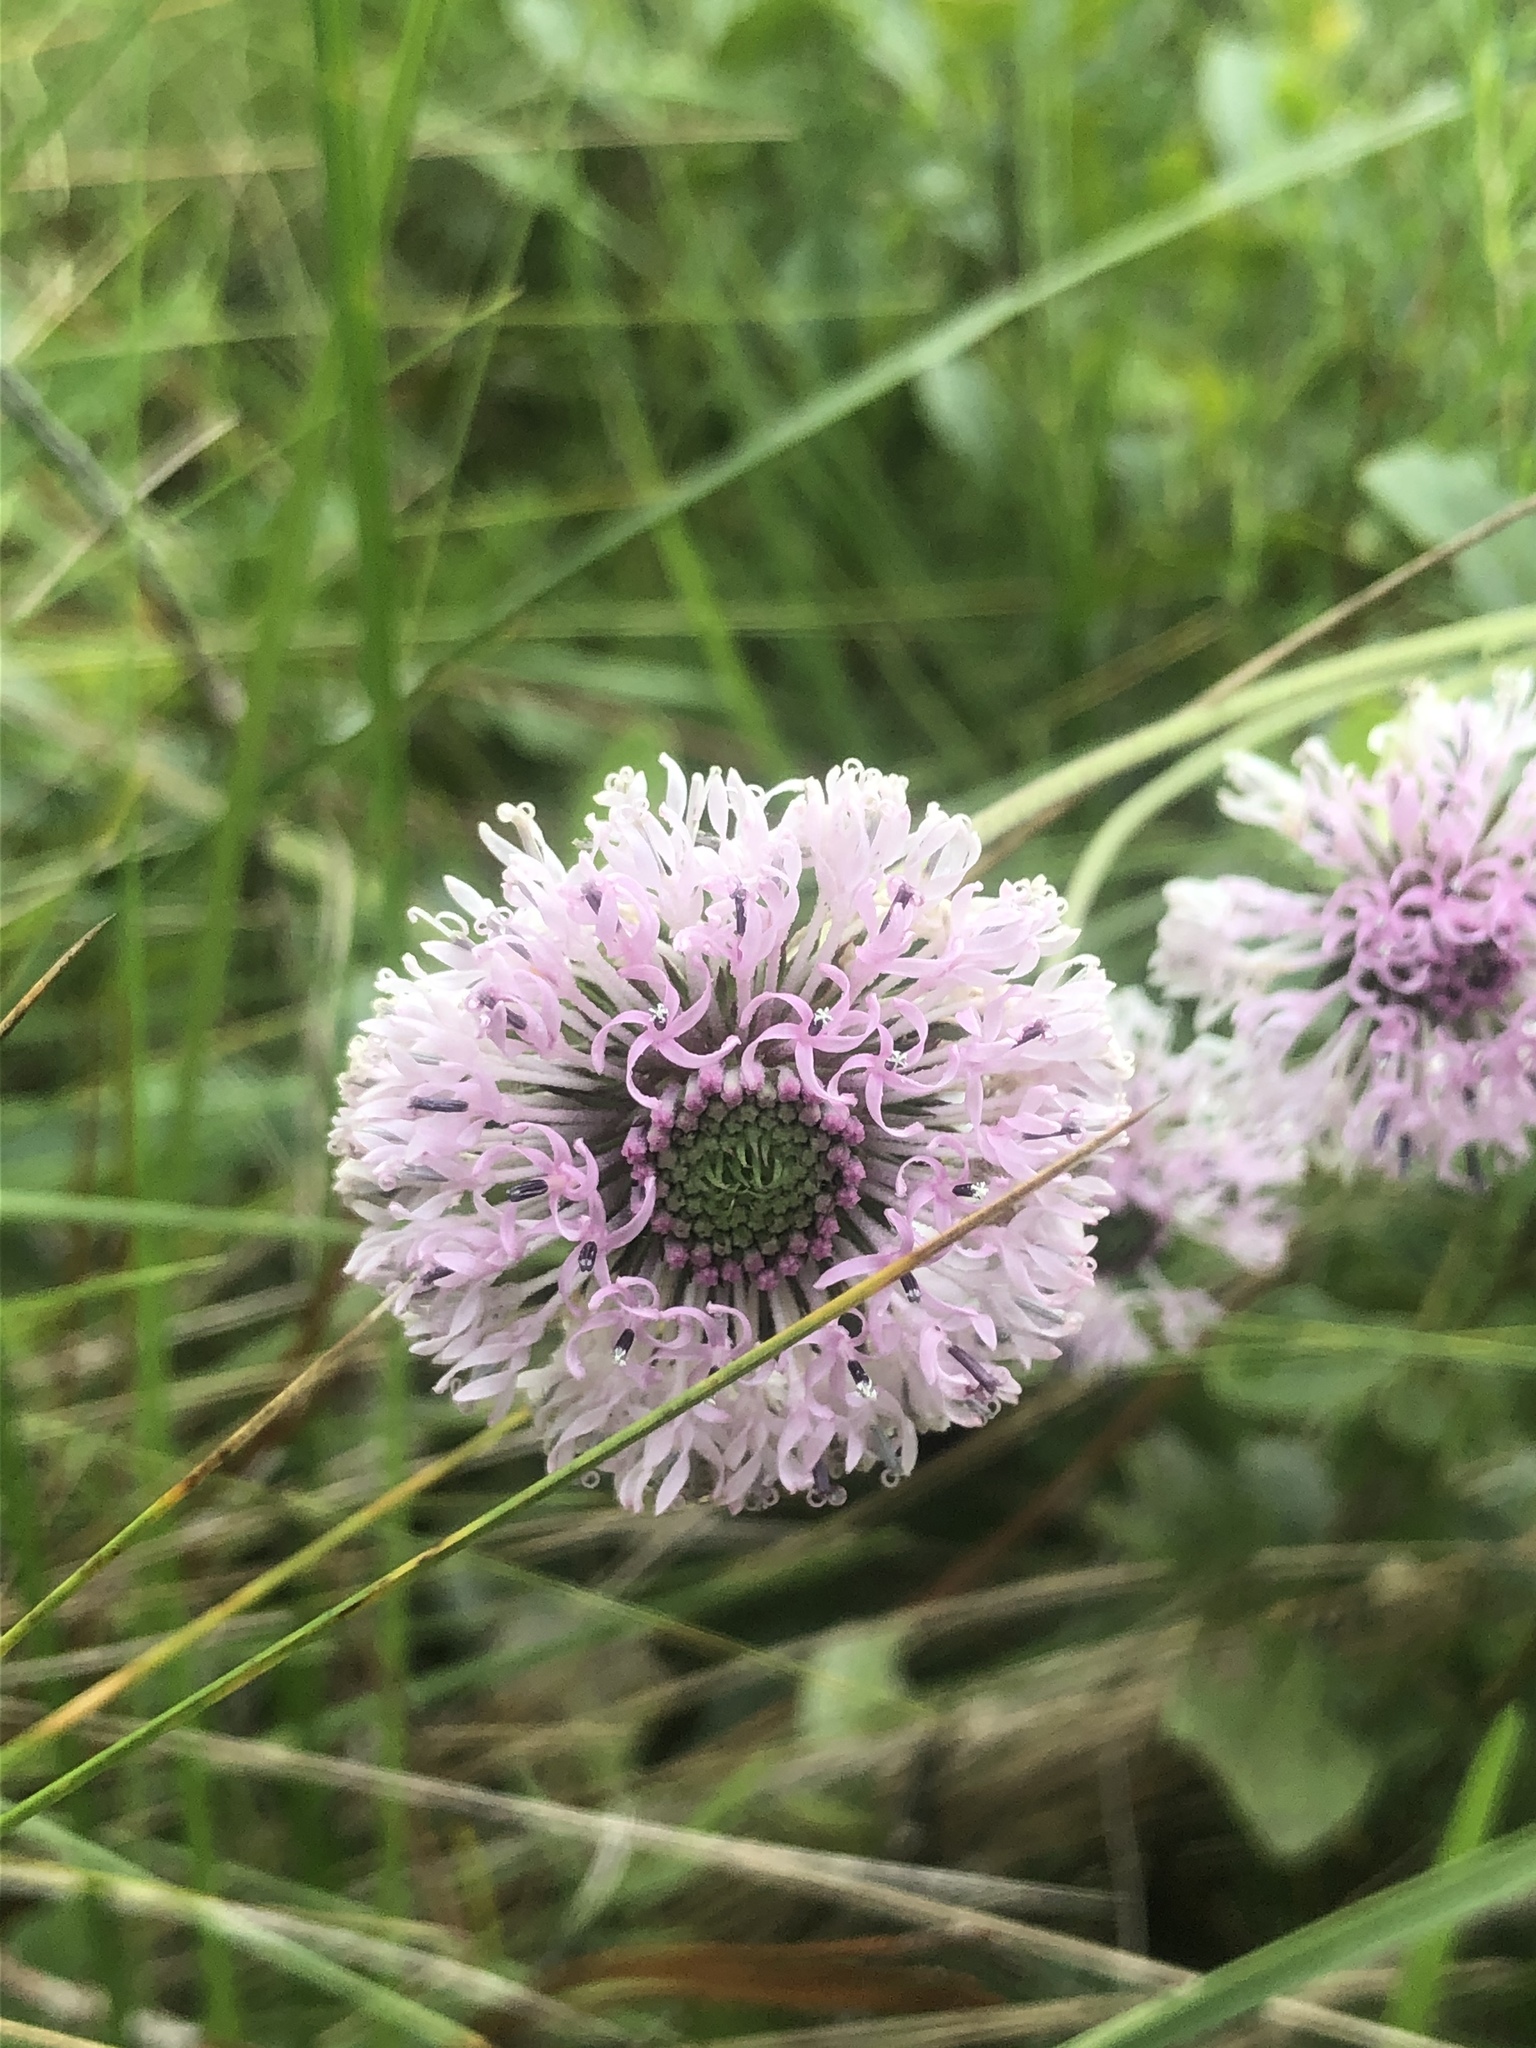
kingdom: Plantae
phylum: Tracheophyta
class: Magnoliopsida
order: Asterales
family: Asteraceae
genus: Marshallia
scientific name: Marshallia graminifolia
